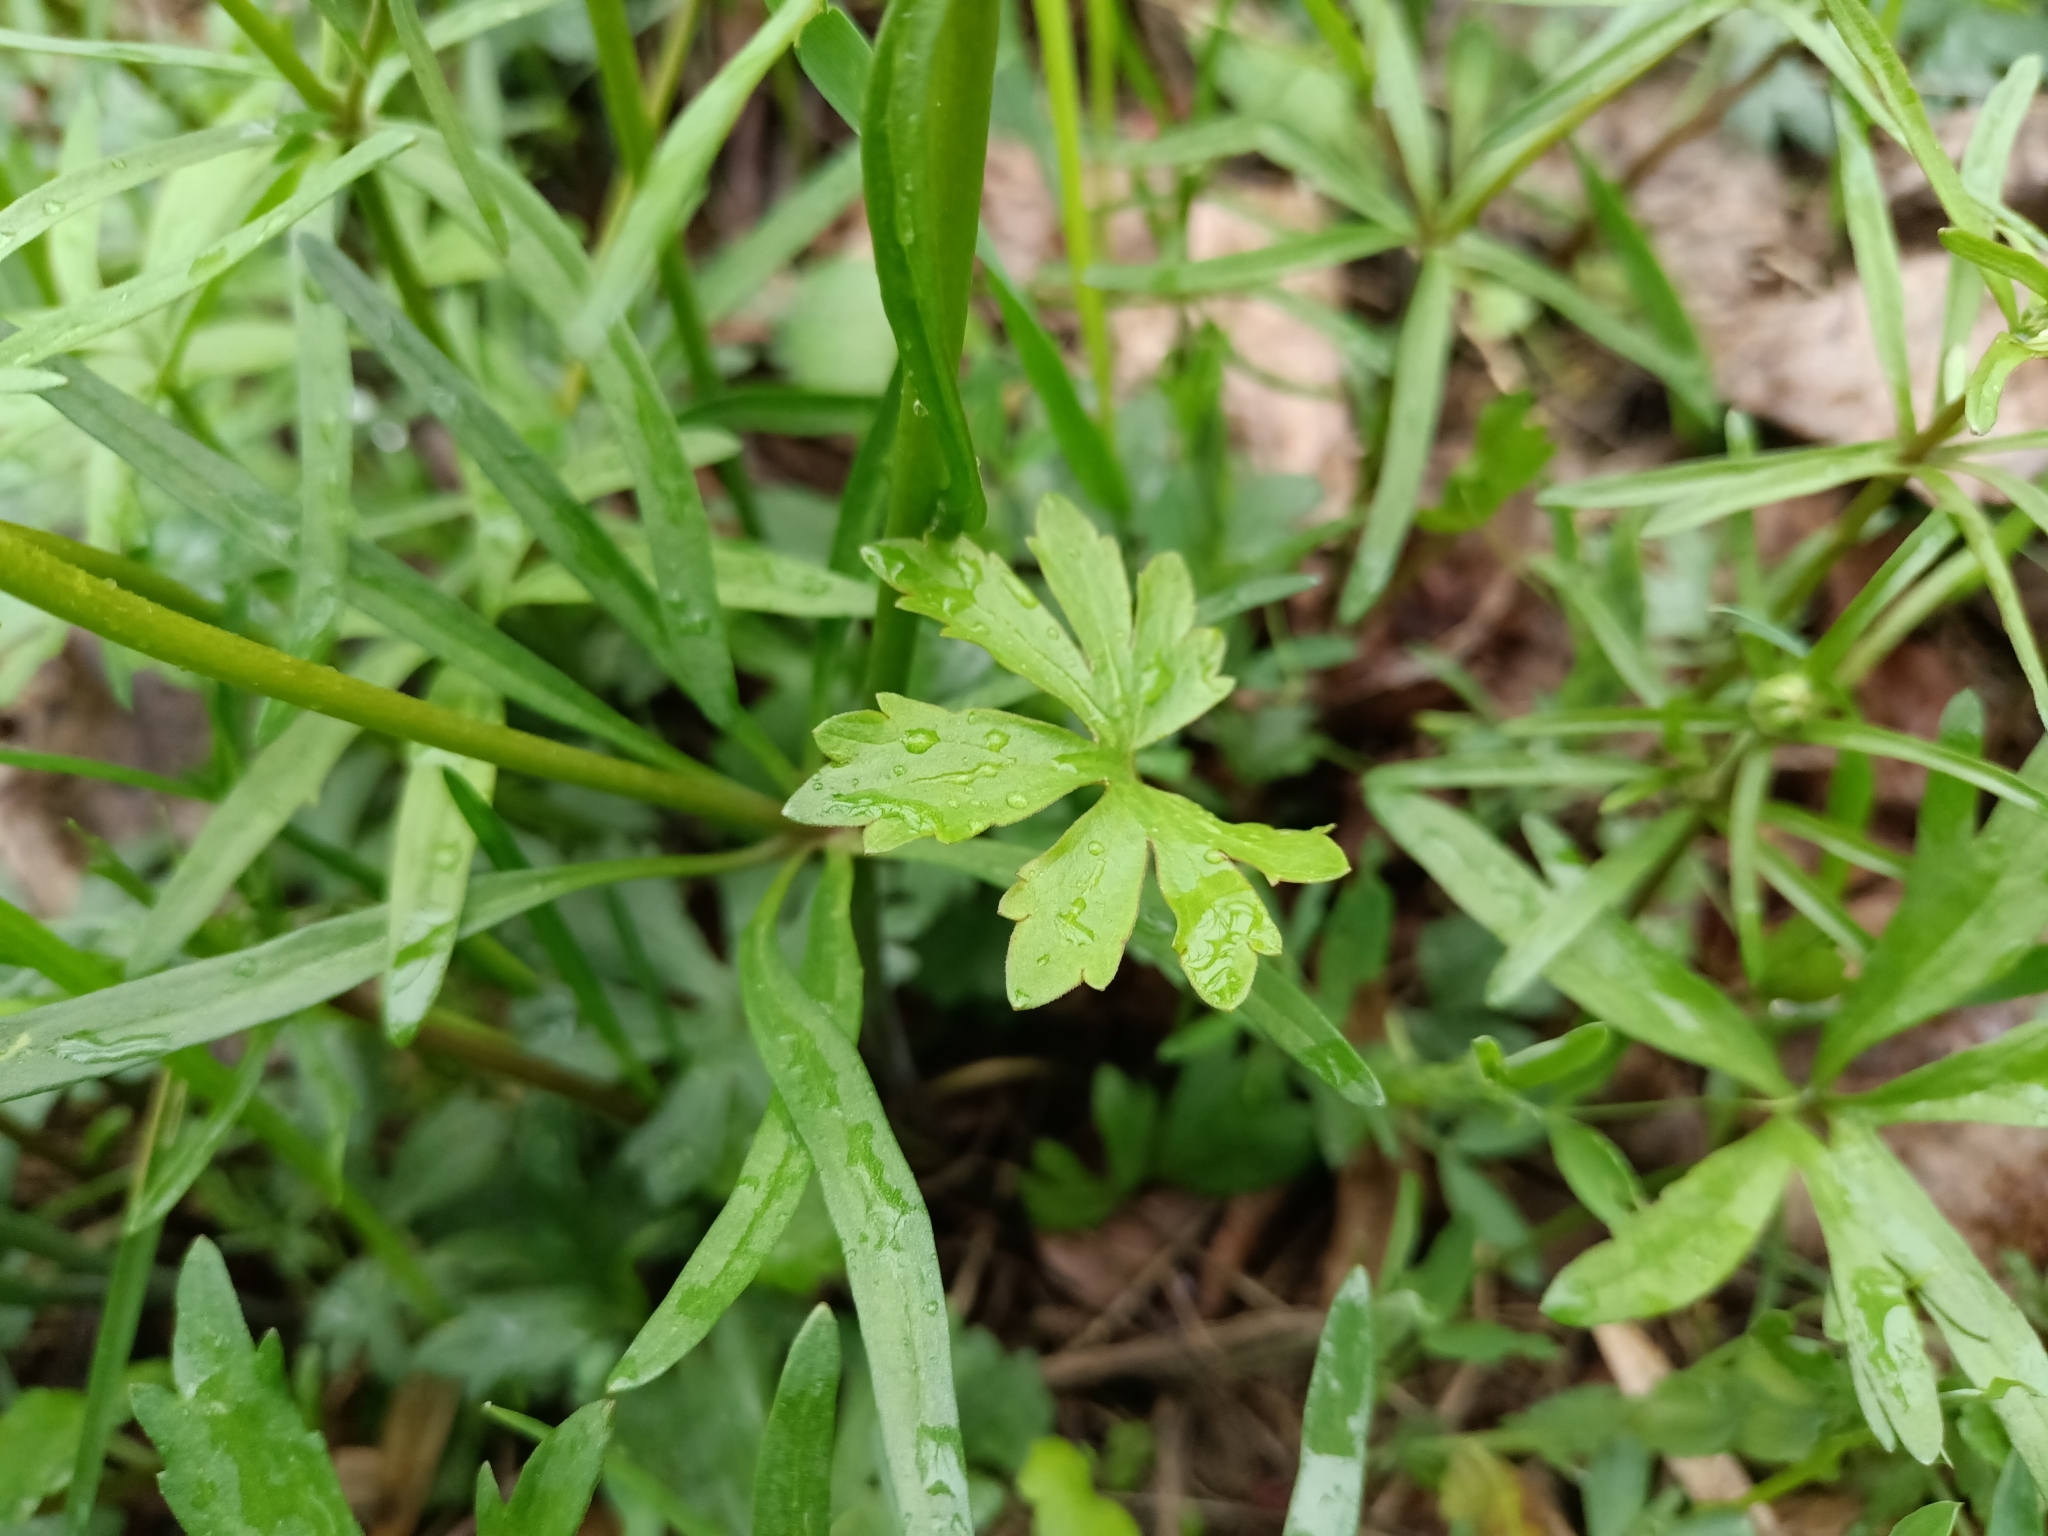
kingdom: Plantae
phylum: Tracheophyta
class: Magnoliopsida
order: Ranunculales
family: Ranunculaceae
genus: Ranunculus
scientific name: Ranunculus auricomus
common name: Goldilocks buttercup
